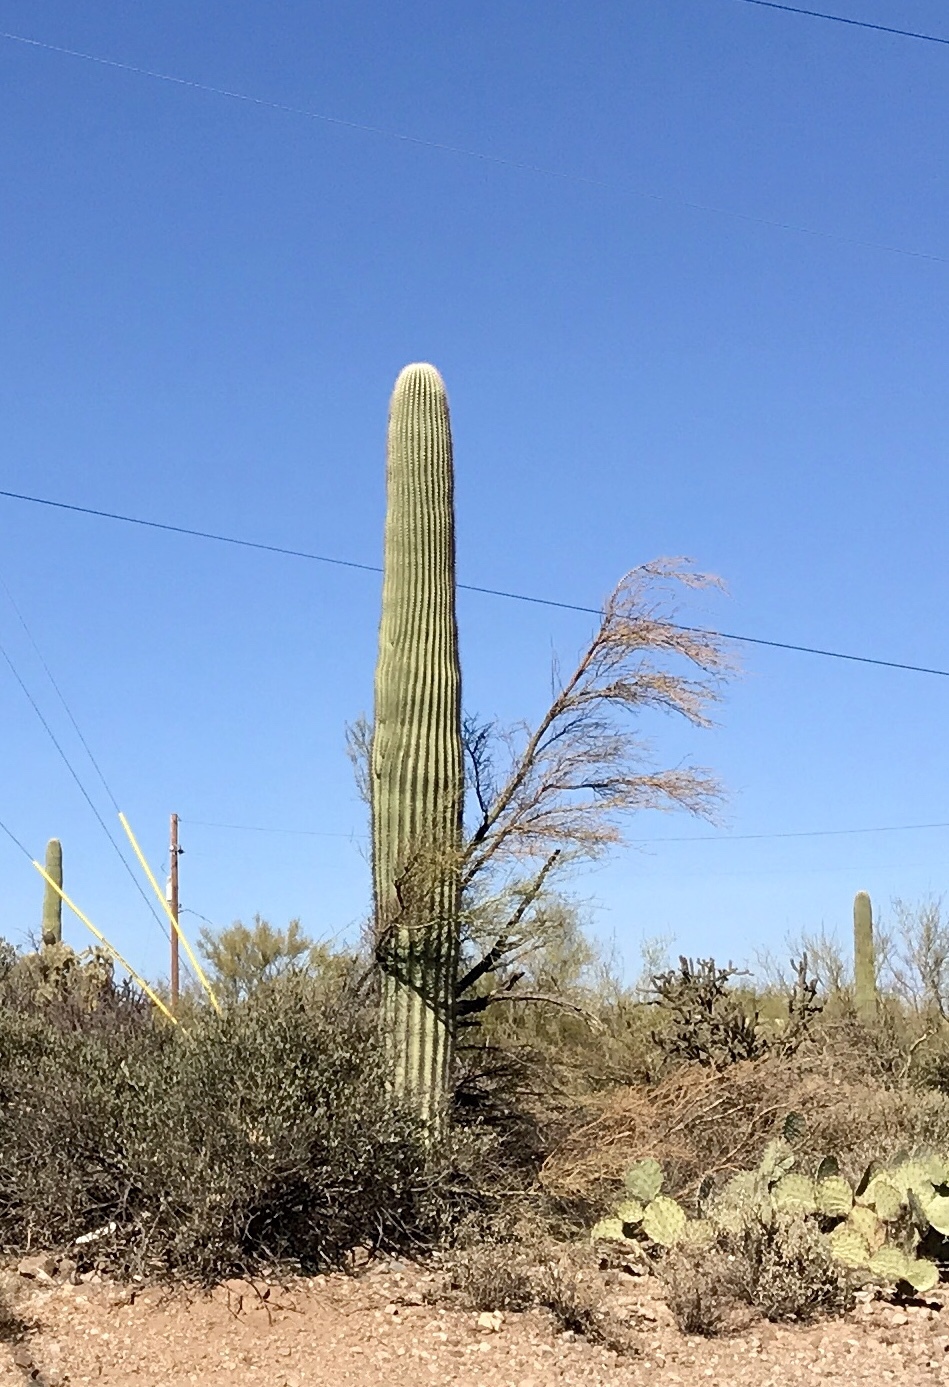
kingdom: Plantae
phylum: Tracheophyta
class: Magnoliopsida
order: Caryophyllales
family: Cactaceae
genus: Carnegiea
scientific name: Carnegiea gigantea
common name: Saguaro
